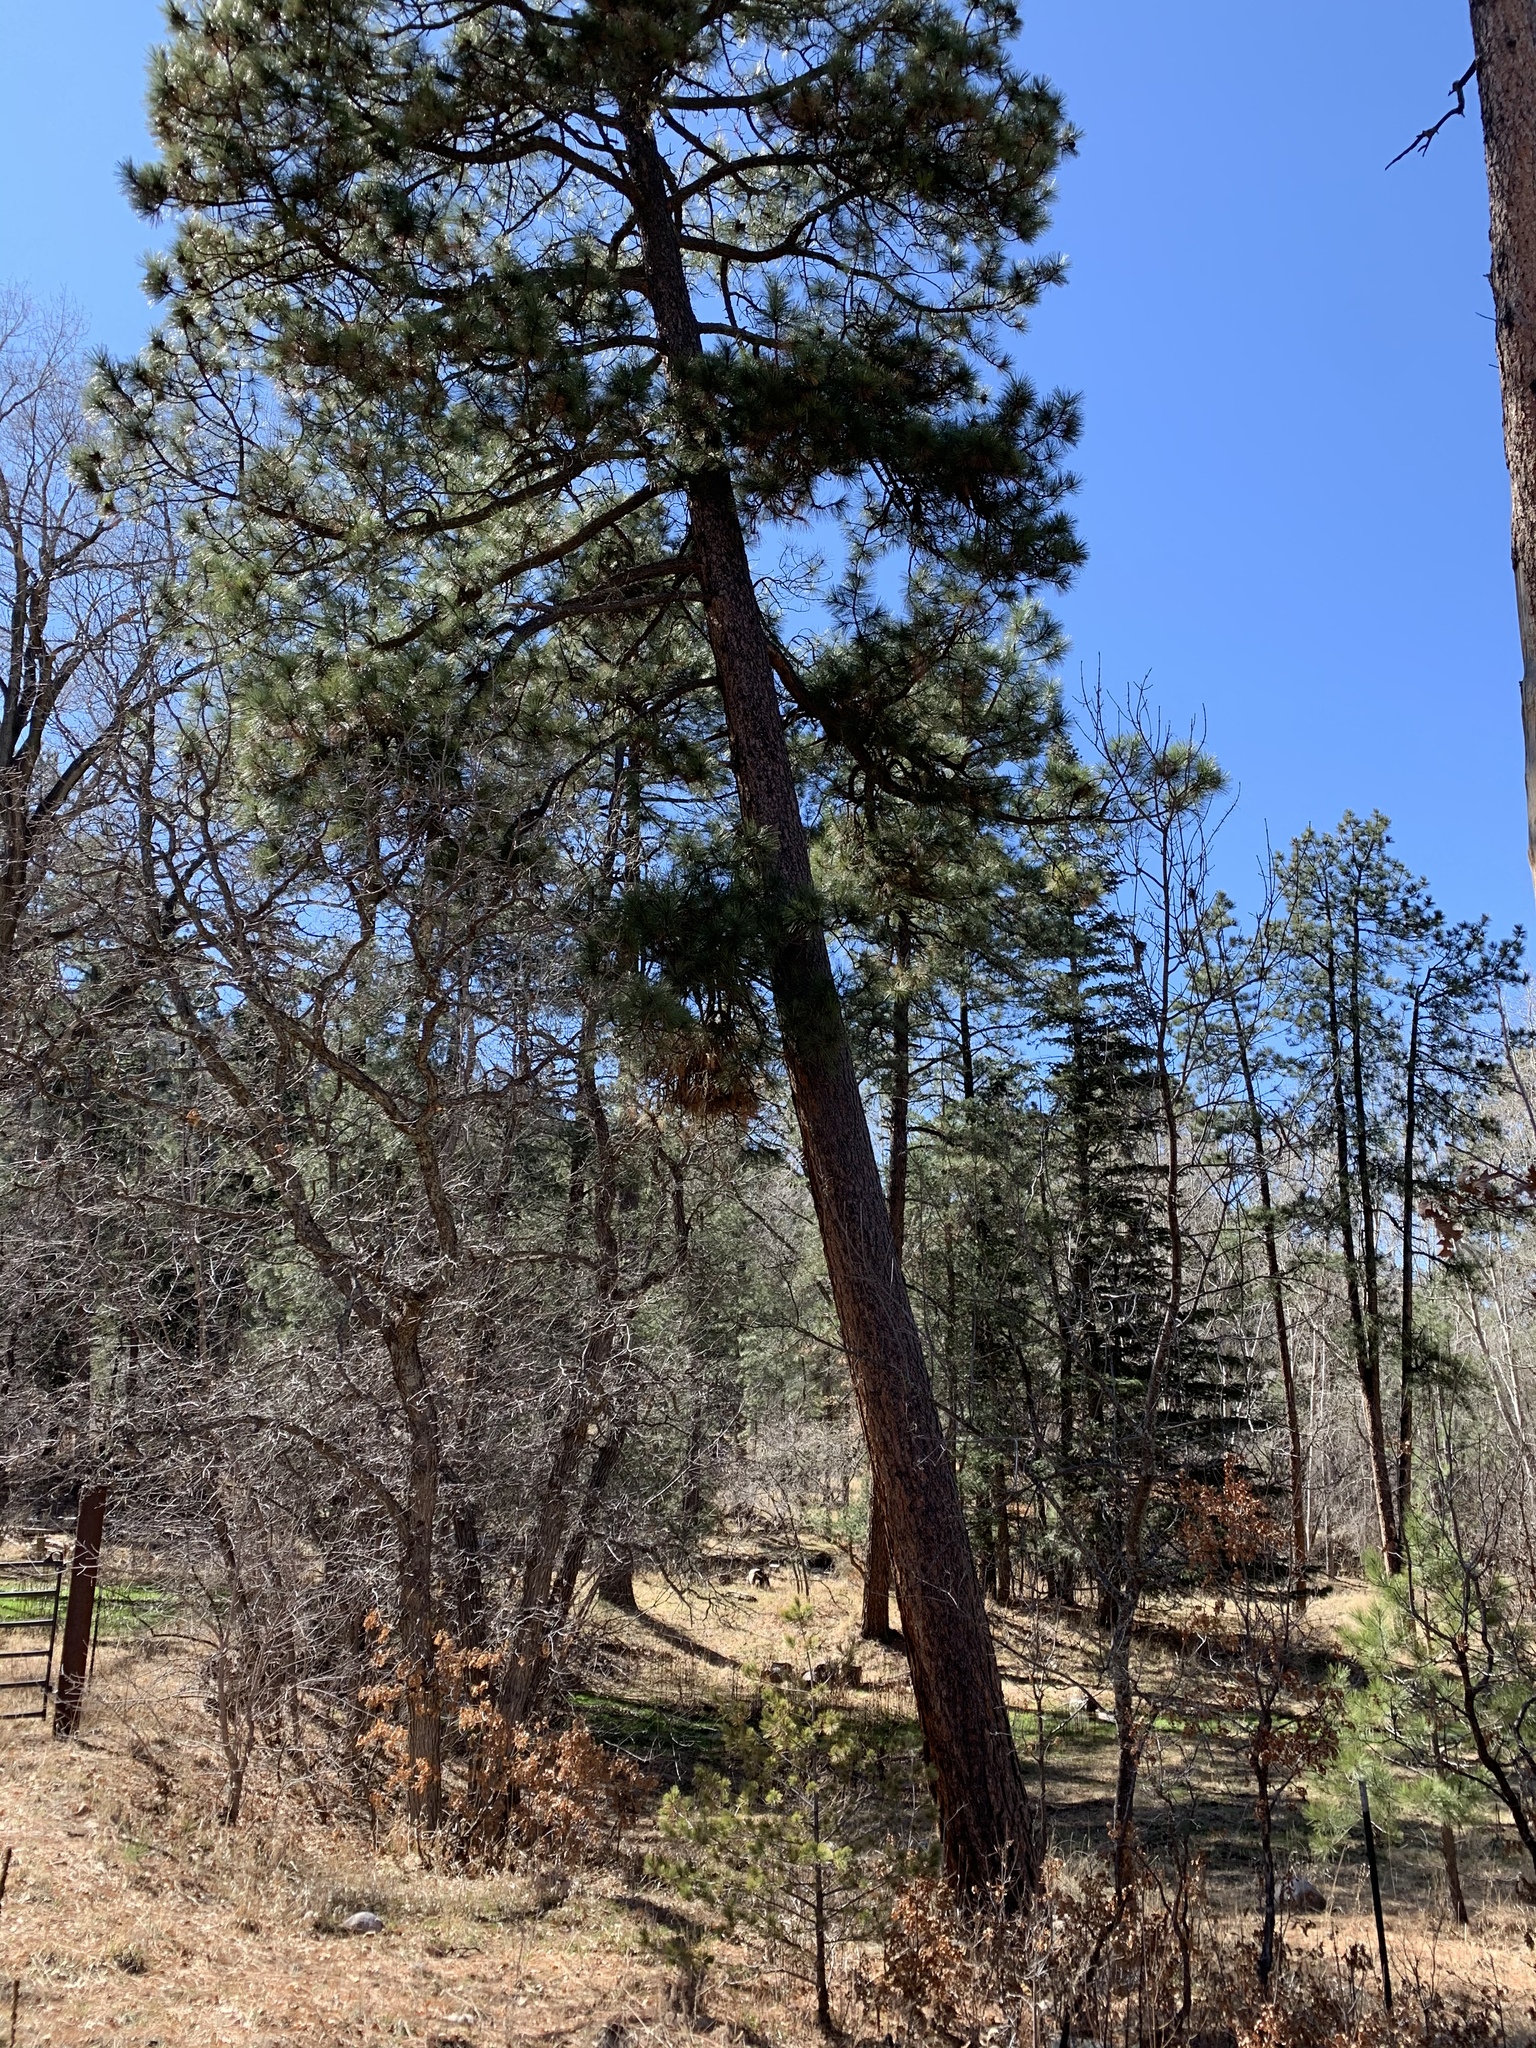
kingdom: Plantae
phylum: Tracheophyta
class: Pinopsida
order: Pinales
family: Pinaceae
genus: Pinus
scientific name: Pinus ponderosa
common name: Western yellow-pine
